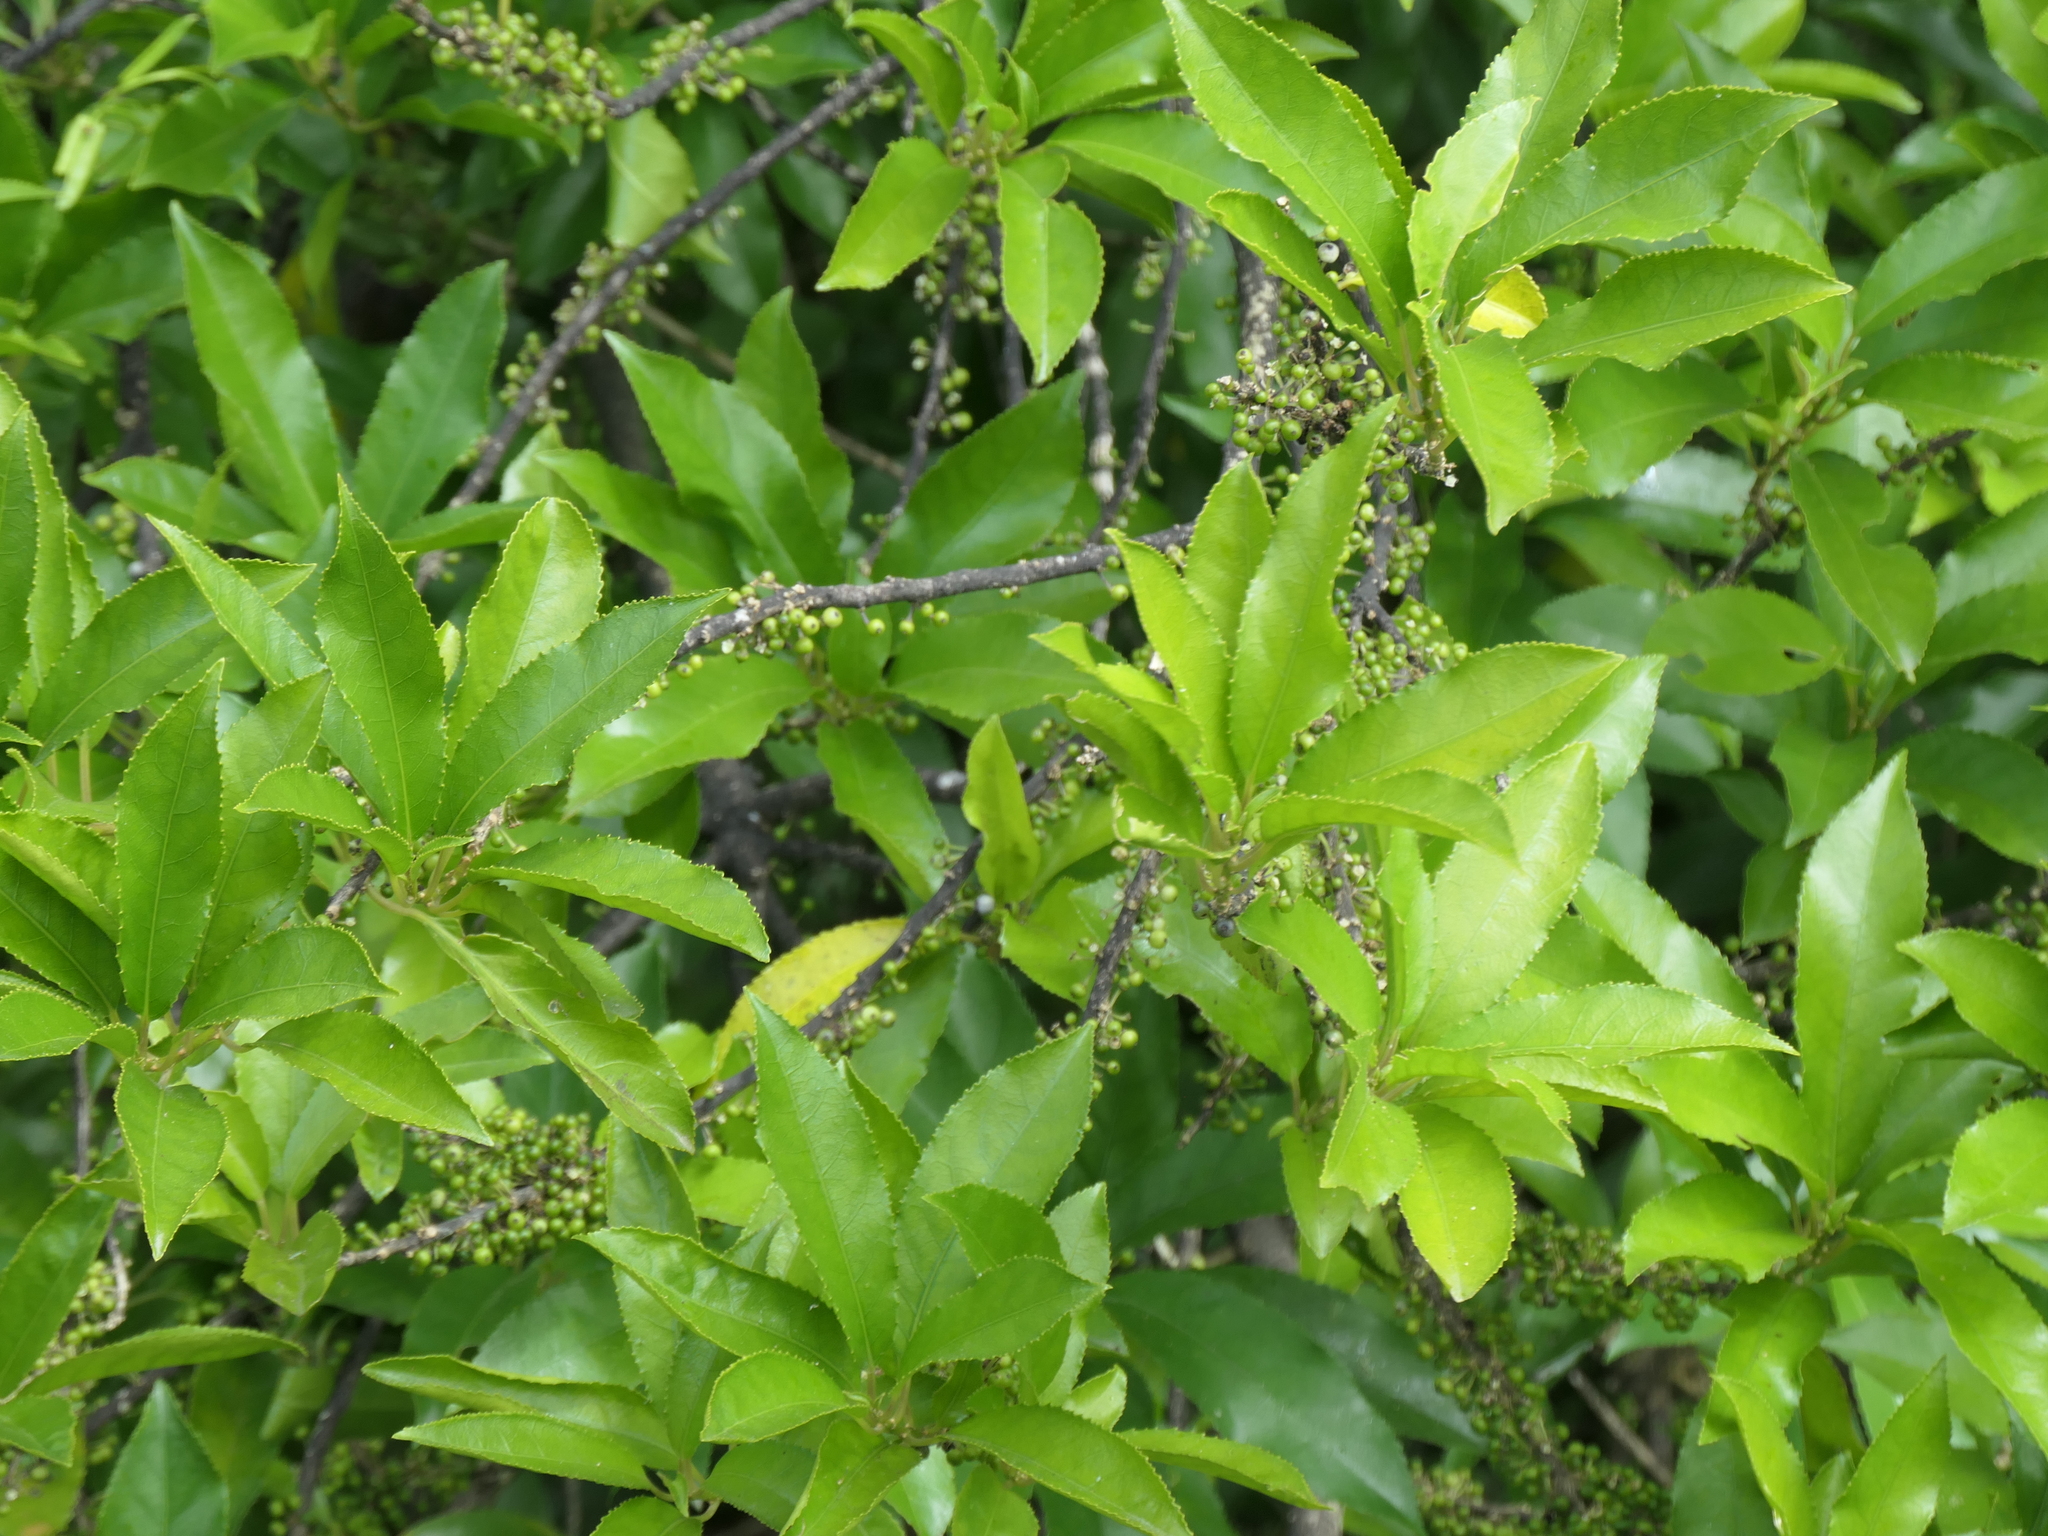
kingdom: Plantae
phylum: Tracheophyta
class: Magnoliopsida
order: Malpighiales
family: Violaceae
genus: Melicytus
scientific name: Melicytus ramiflorus
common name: Mahoe
